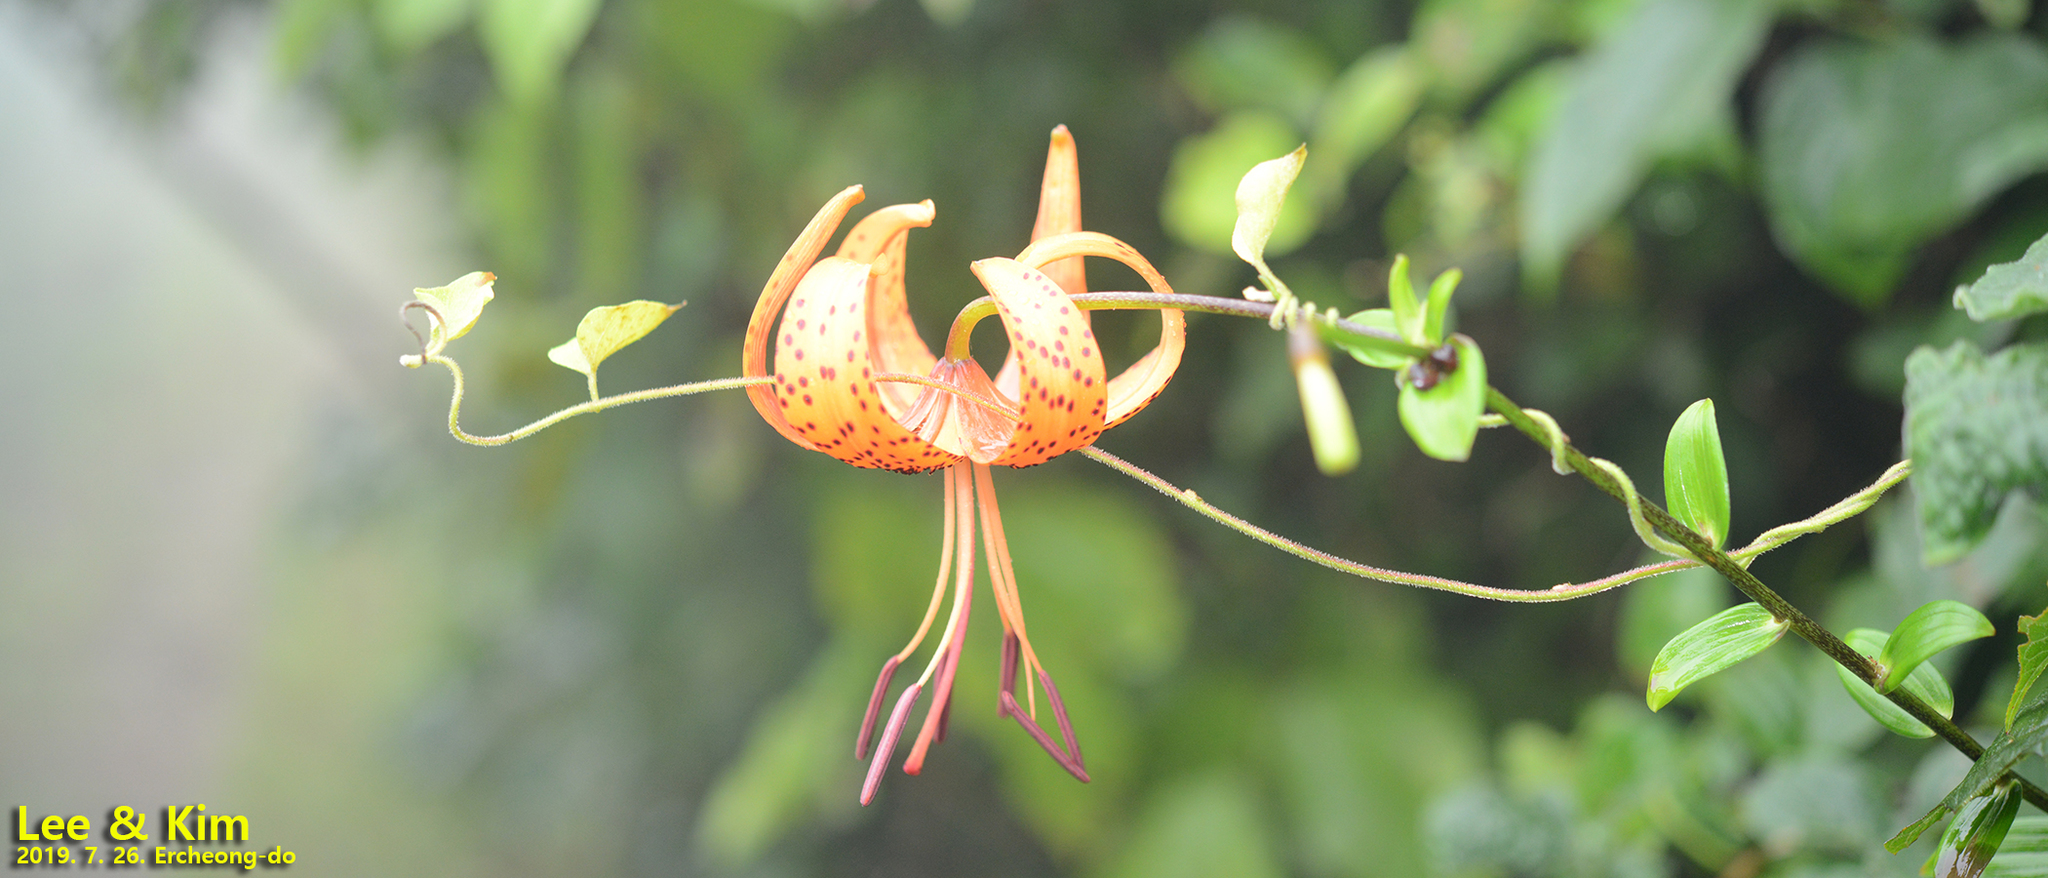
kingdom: Plantae
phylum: Tracheophyta
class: Liliopsida
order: Liliales
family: Liliaceae
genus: Lilium
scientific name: Lilium lancifolium
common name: Tiger lily
